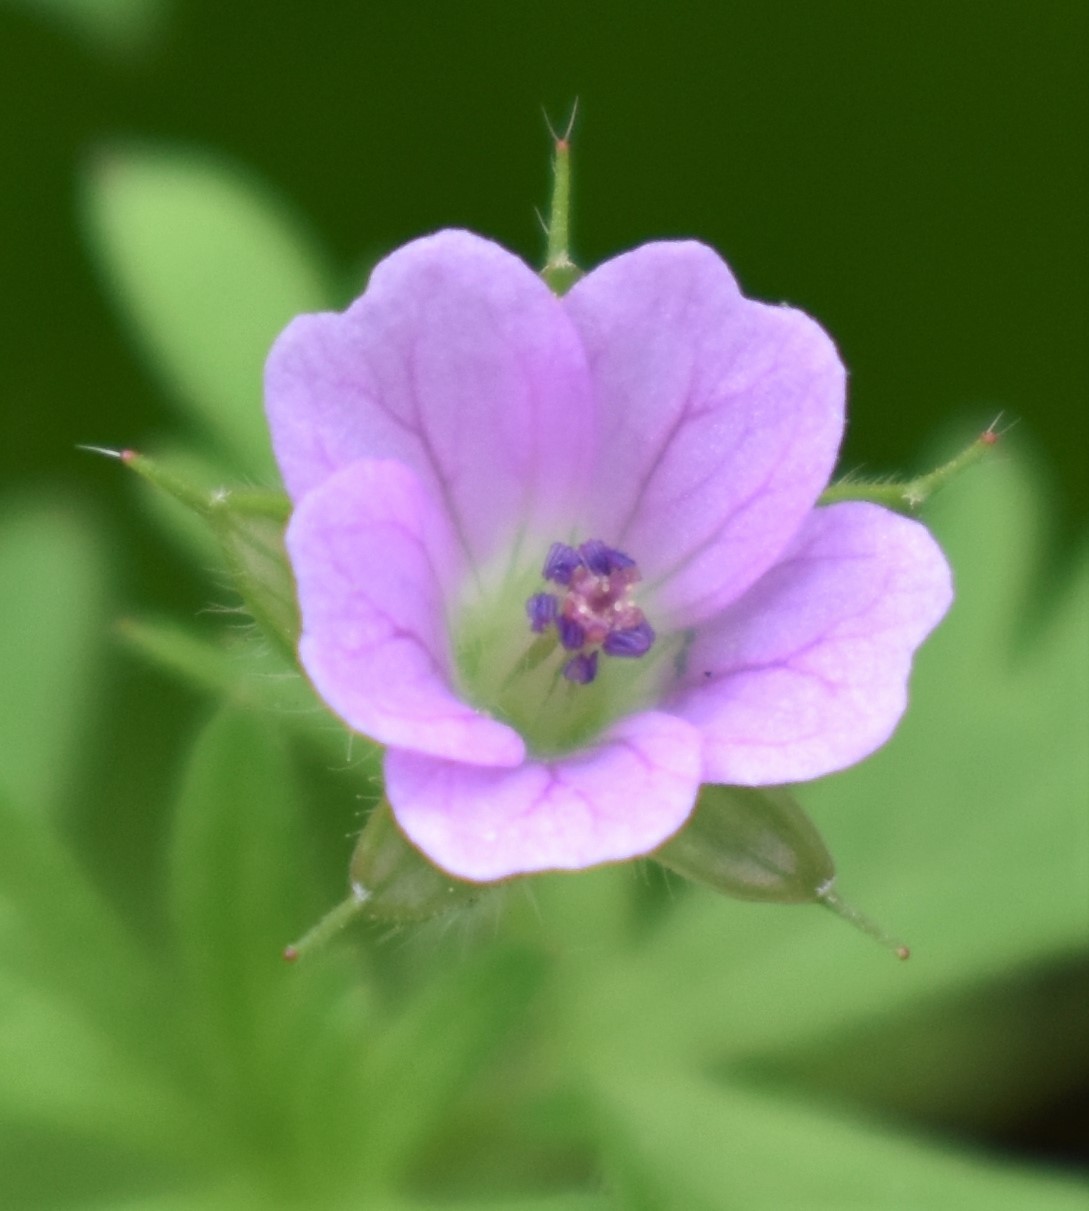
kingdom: Plantae
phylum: Tracheophyta
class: Magnoliopsida
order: Geraniales
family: Geraniaceae
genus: Geranium
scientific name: Geranium bicknellii
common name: Bicknell's cranesbill
